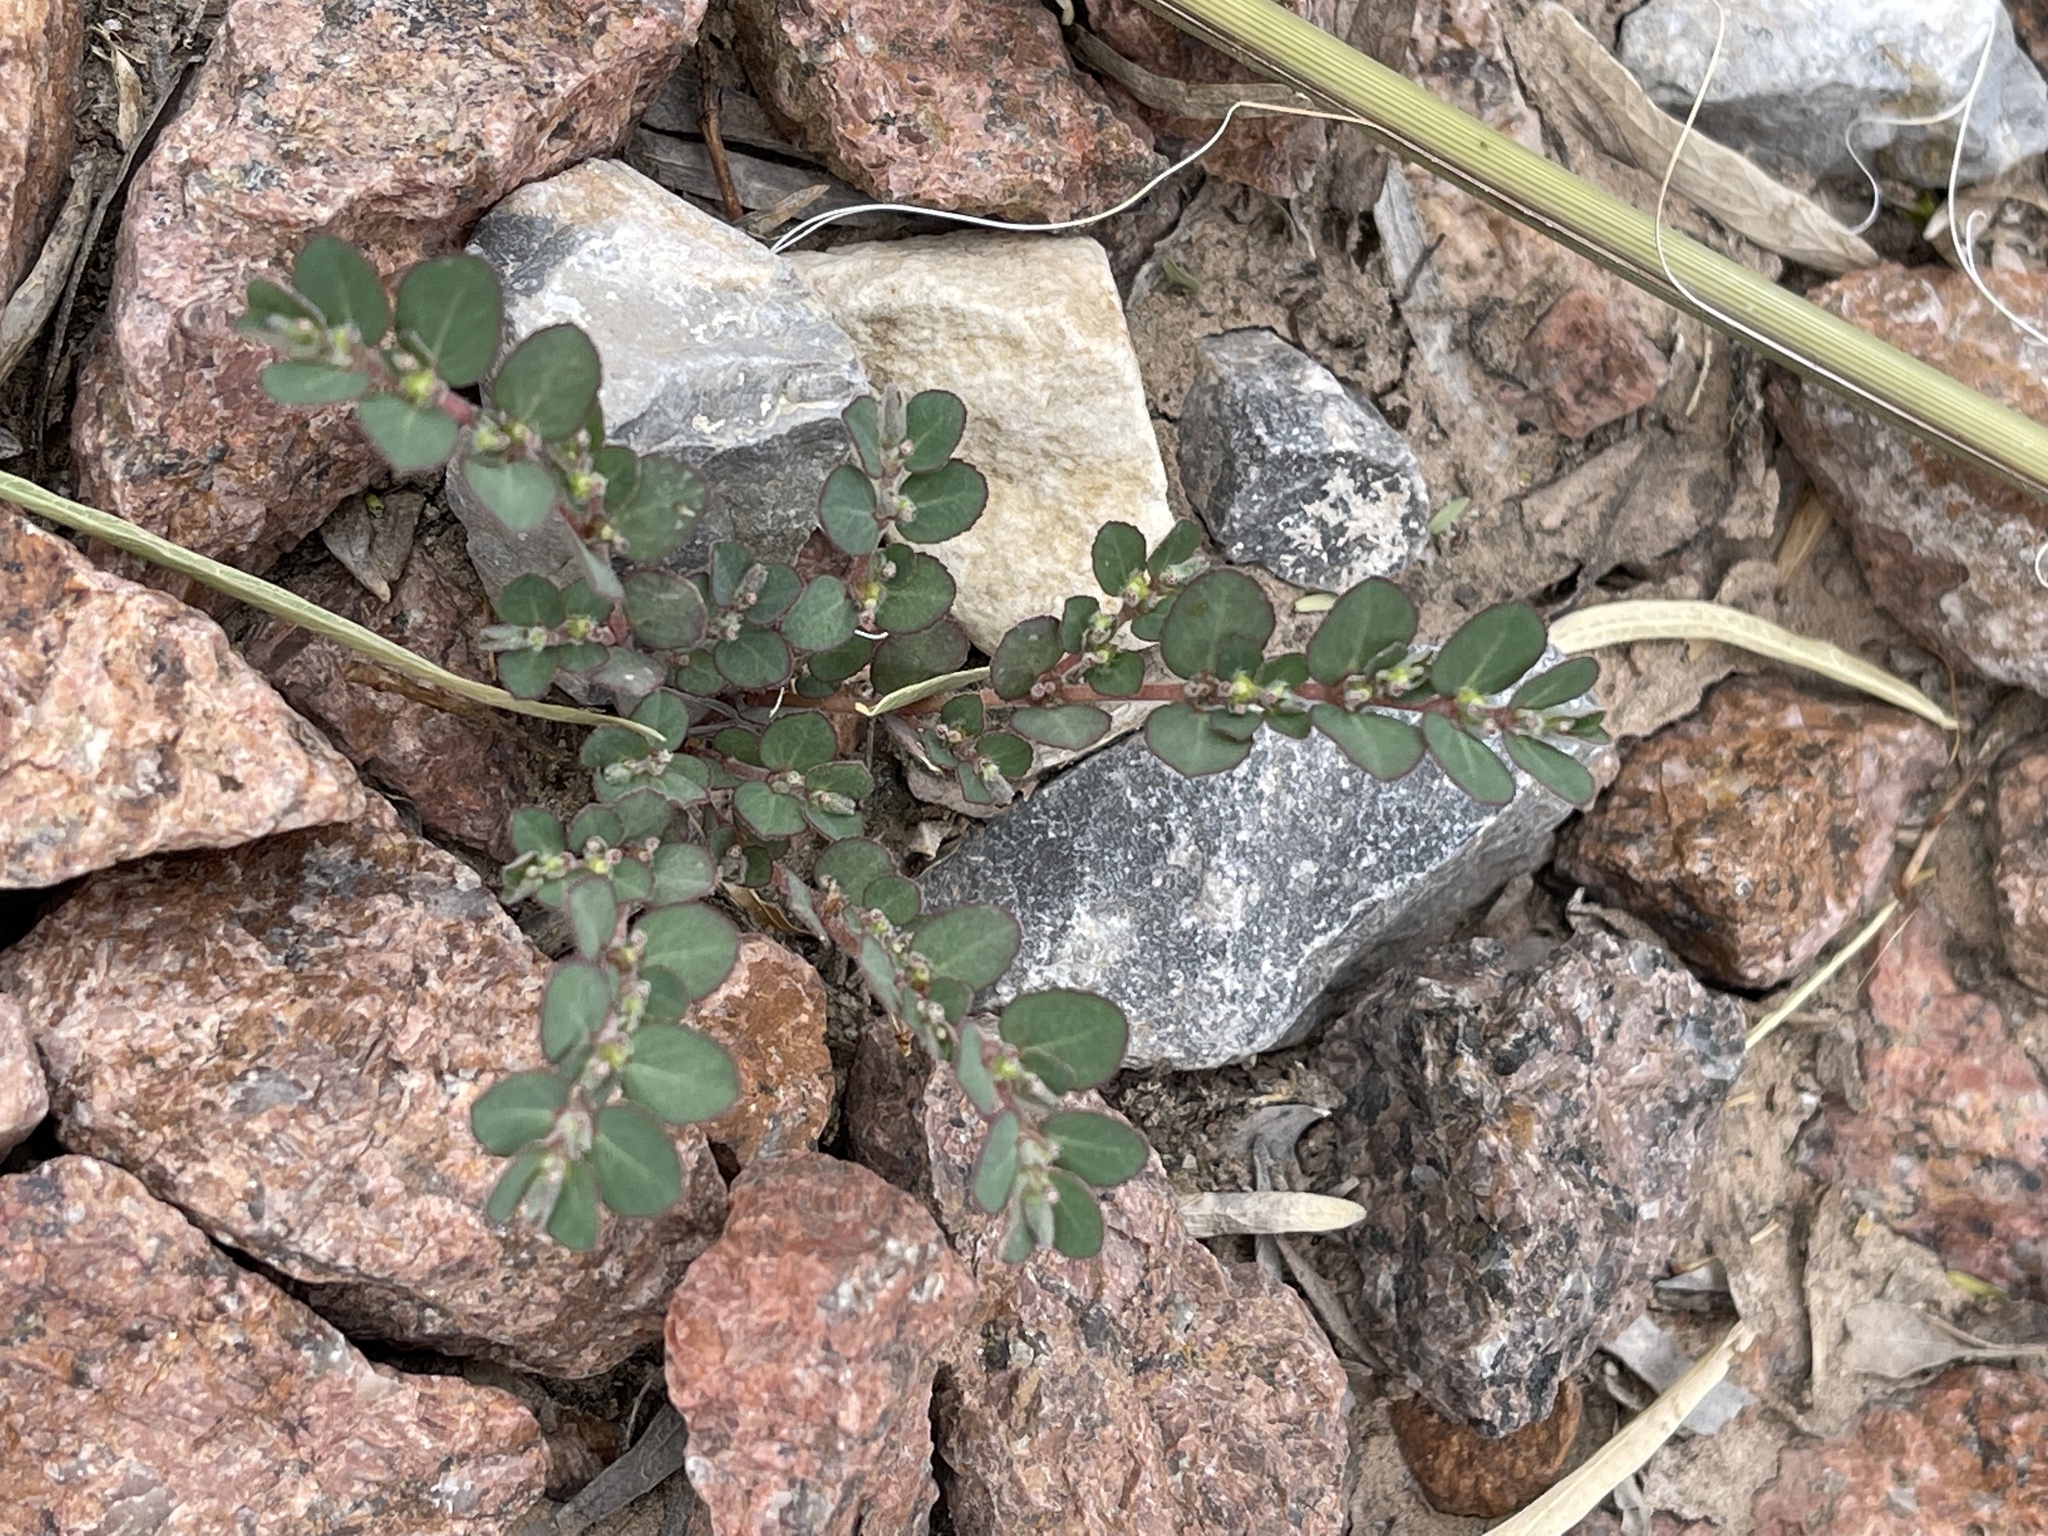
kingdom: Plantae
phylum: Tracheophyta
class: Magnoliopsida
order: Malpighiales
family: Euphorbiaceae
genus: Euphorbia
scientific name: Euphorbia prostrata
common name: Prostrate sandmat
